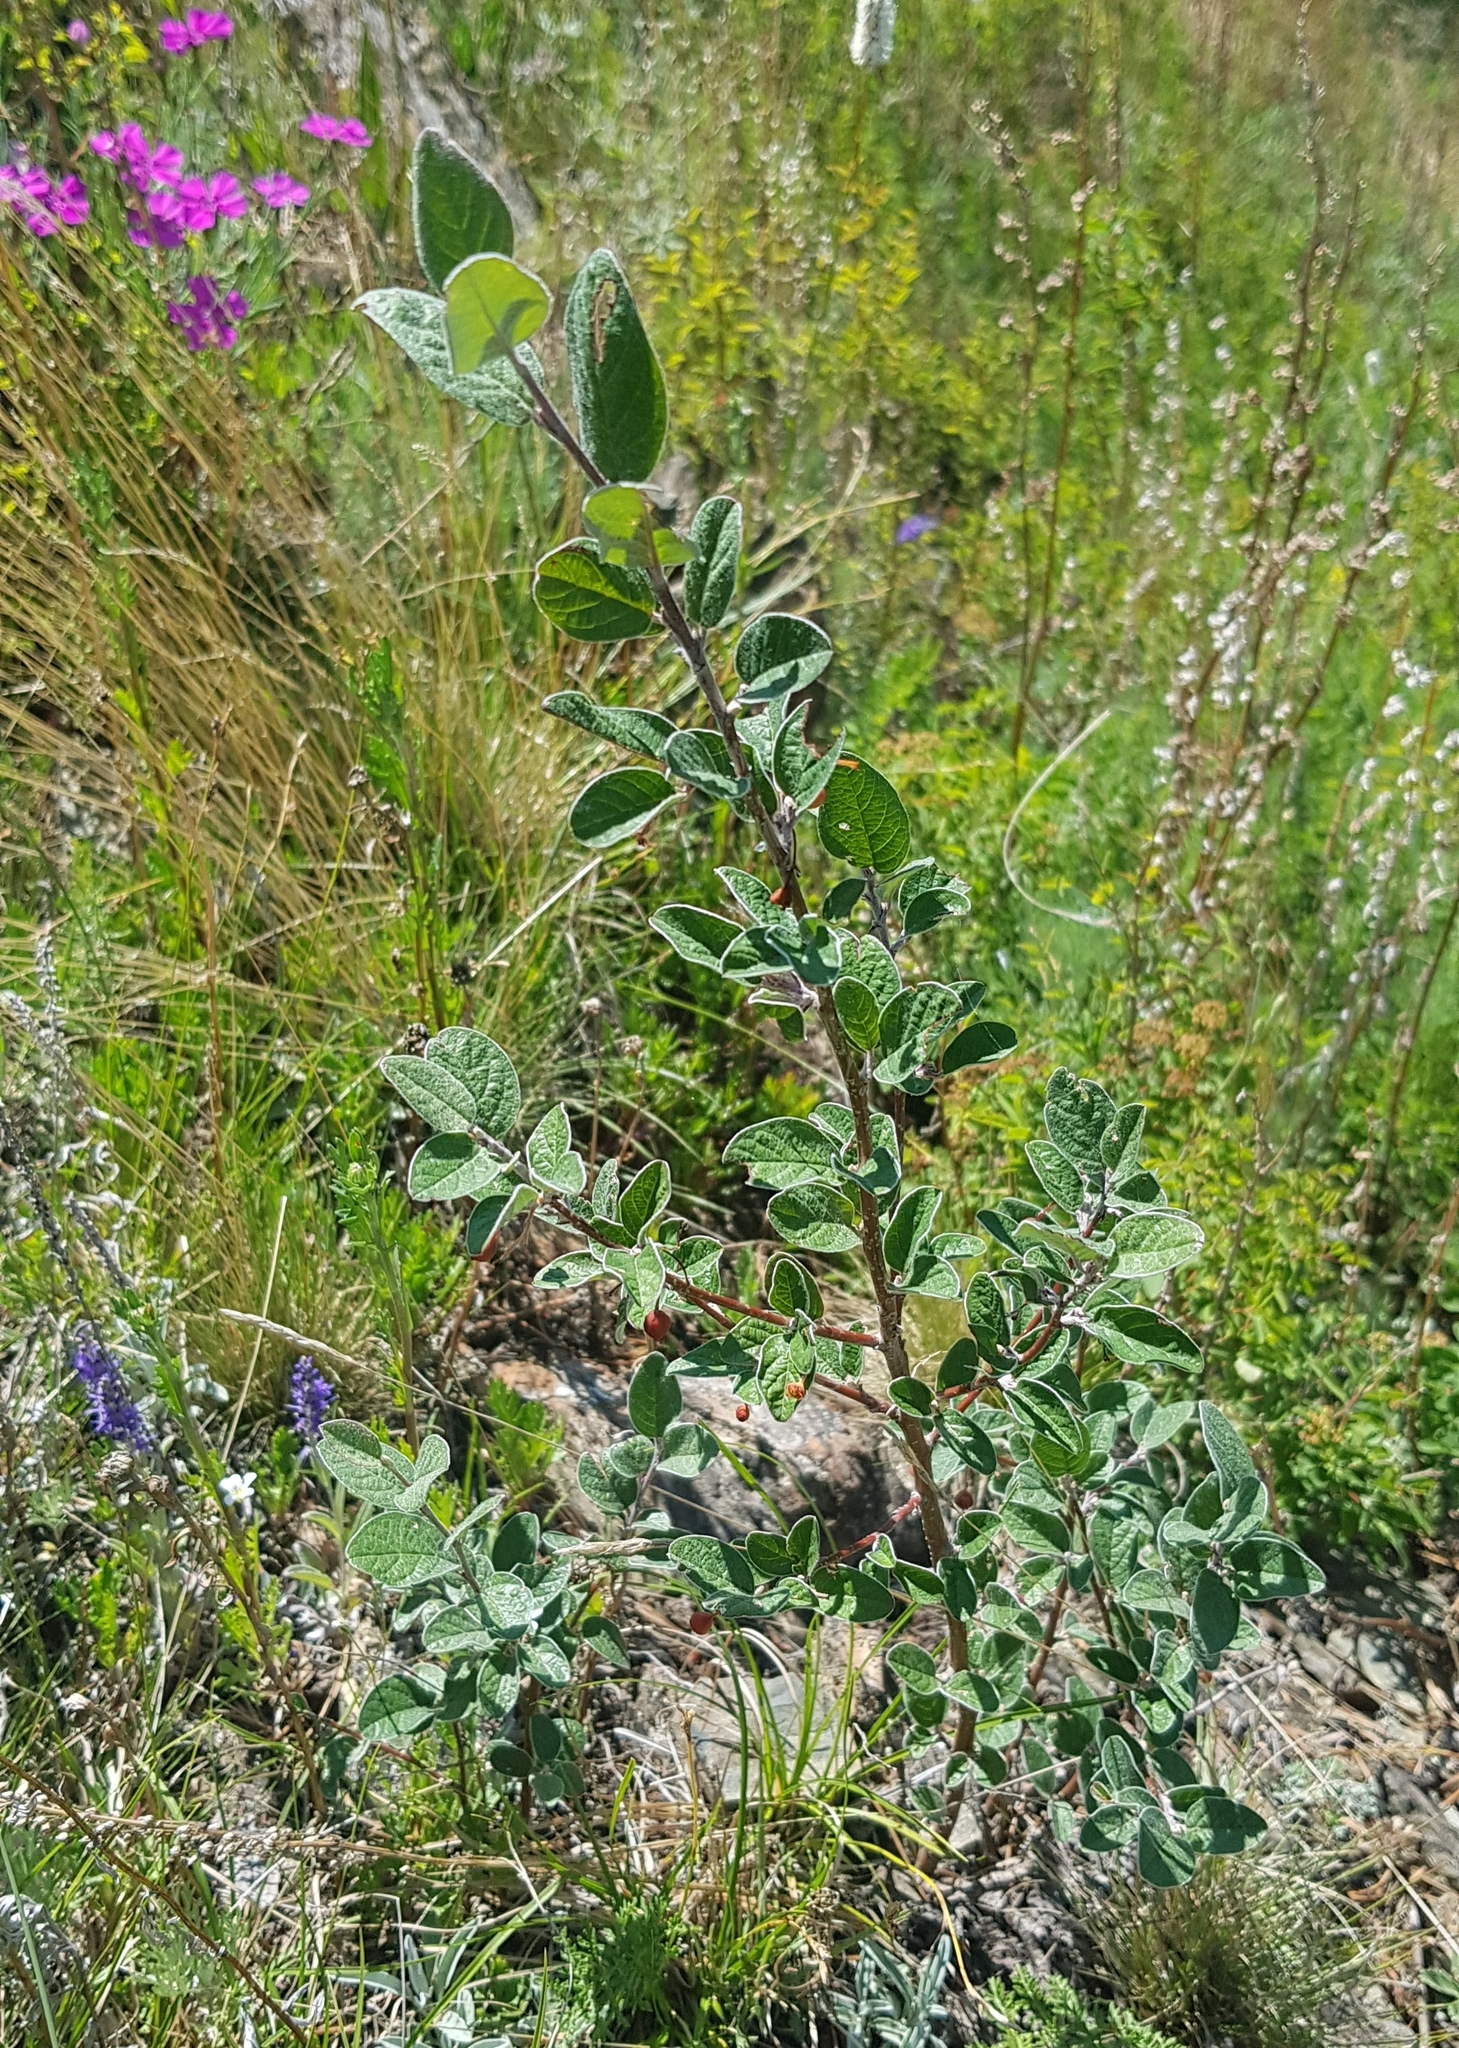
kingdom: Plantae
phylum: Tracheophyta
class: Magnoliopsida
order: Rosales
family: Rosaceae
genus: Cotoneaster
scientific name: Cotoneaster melanocarpus
